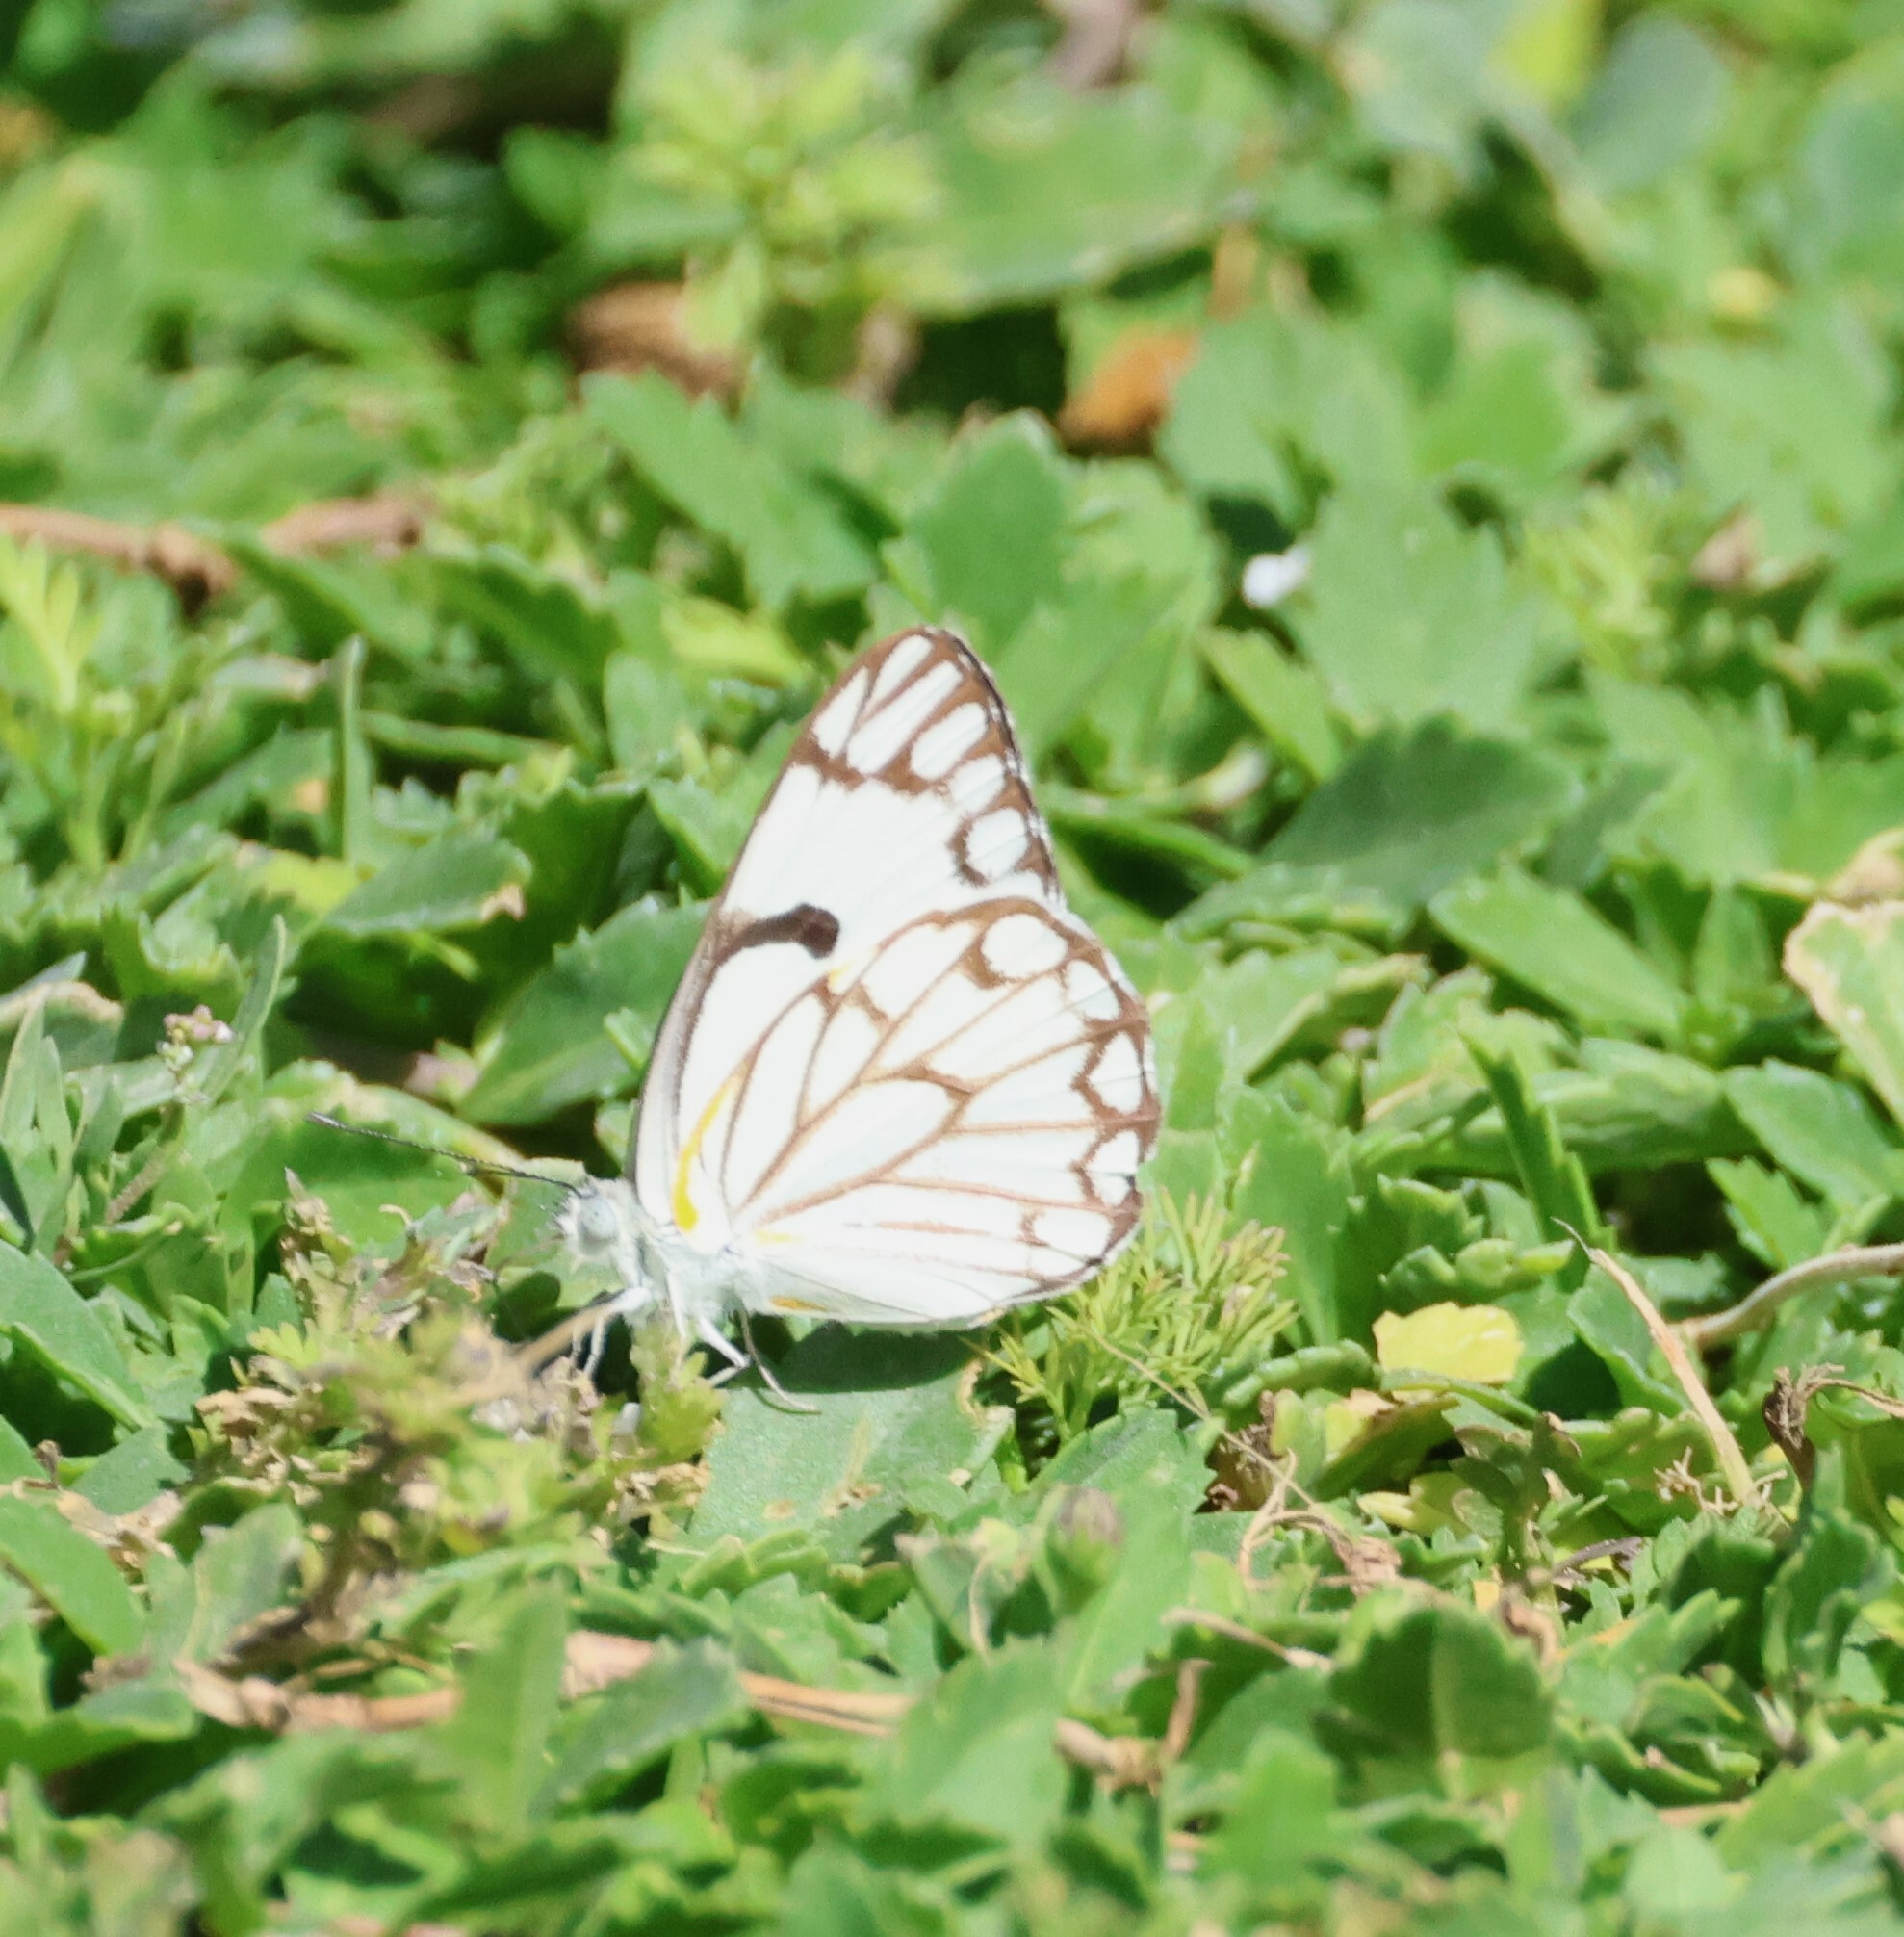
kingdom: Animalia
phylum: Arthropoda
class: Insecta
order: Lepidoptera
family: Pieridae
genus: Belenois
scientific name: Belenois aurota
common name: Brown-veined white
